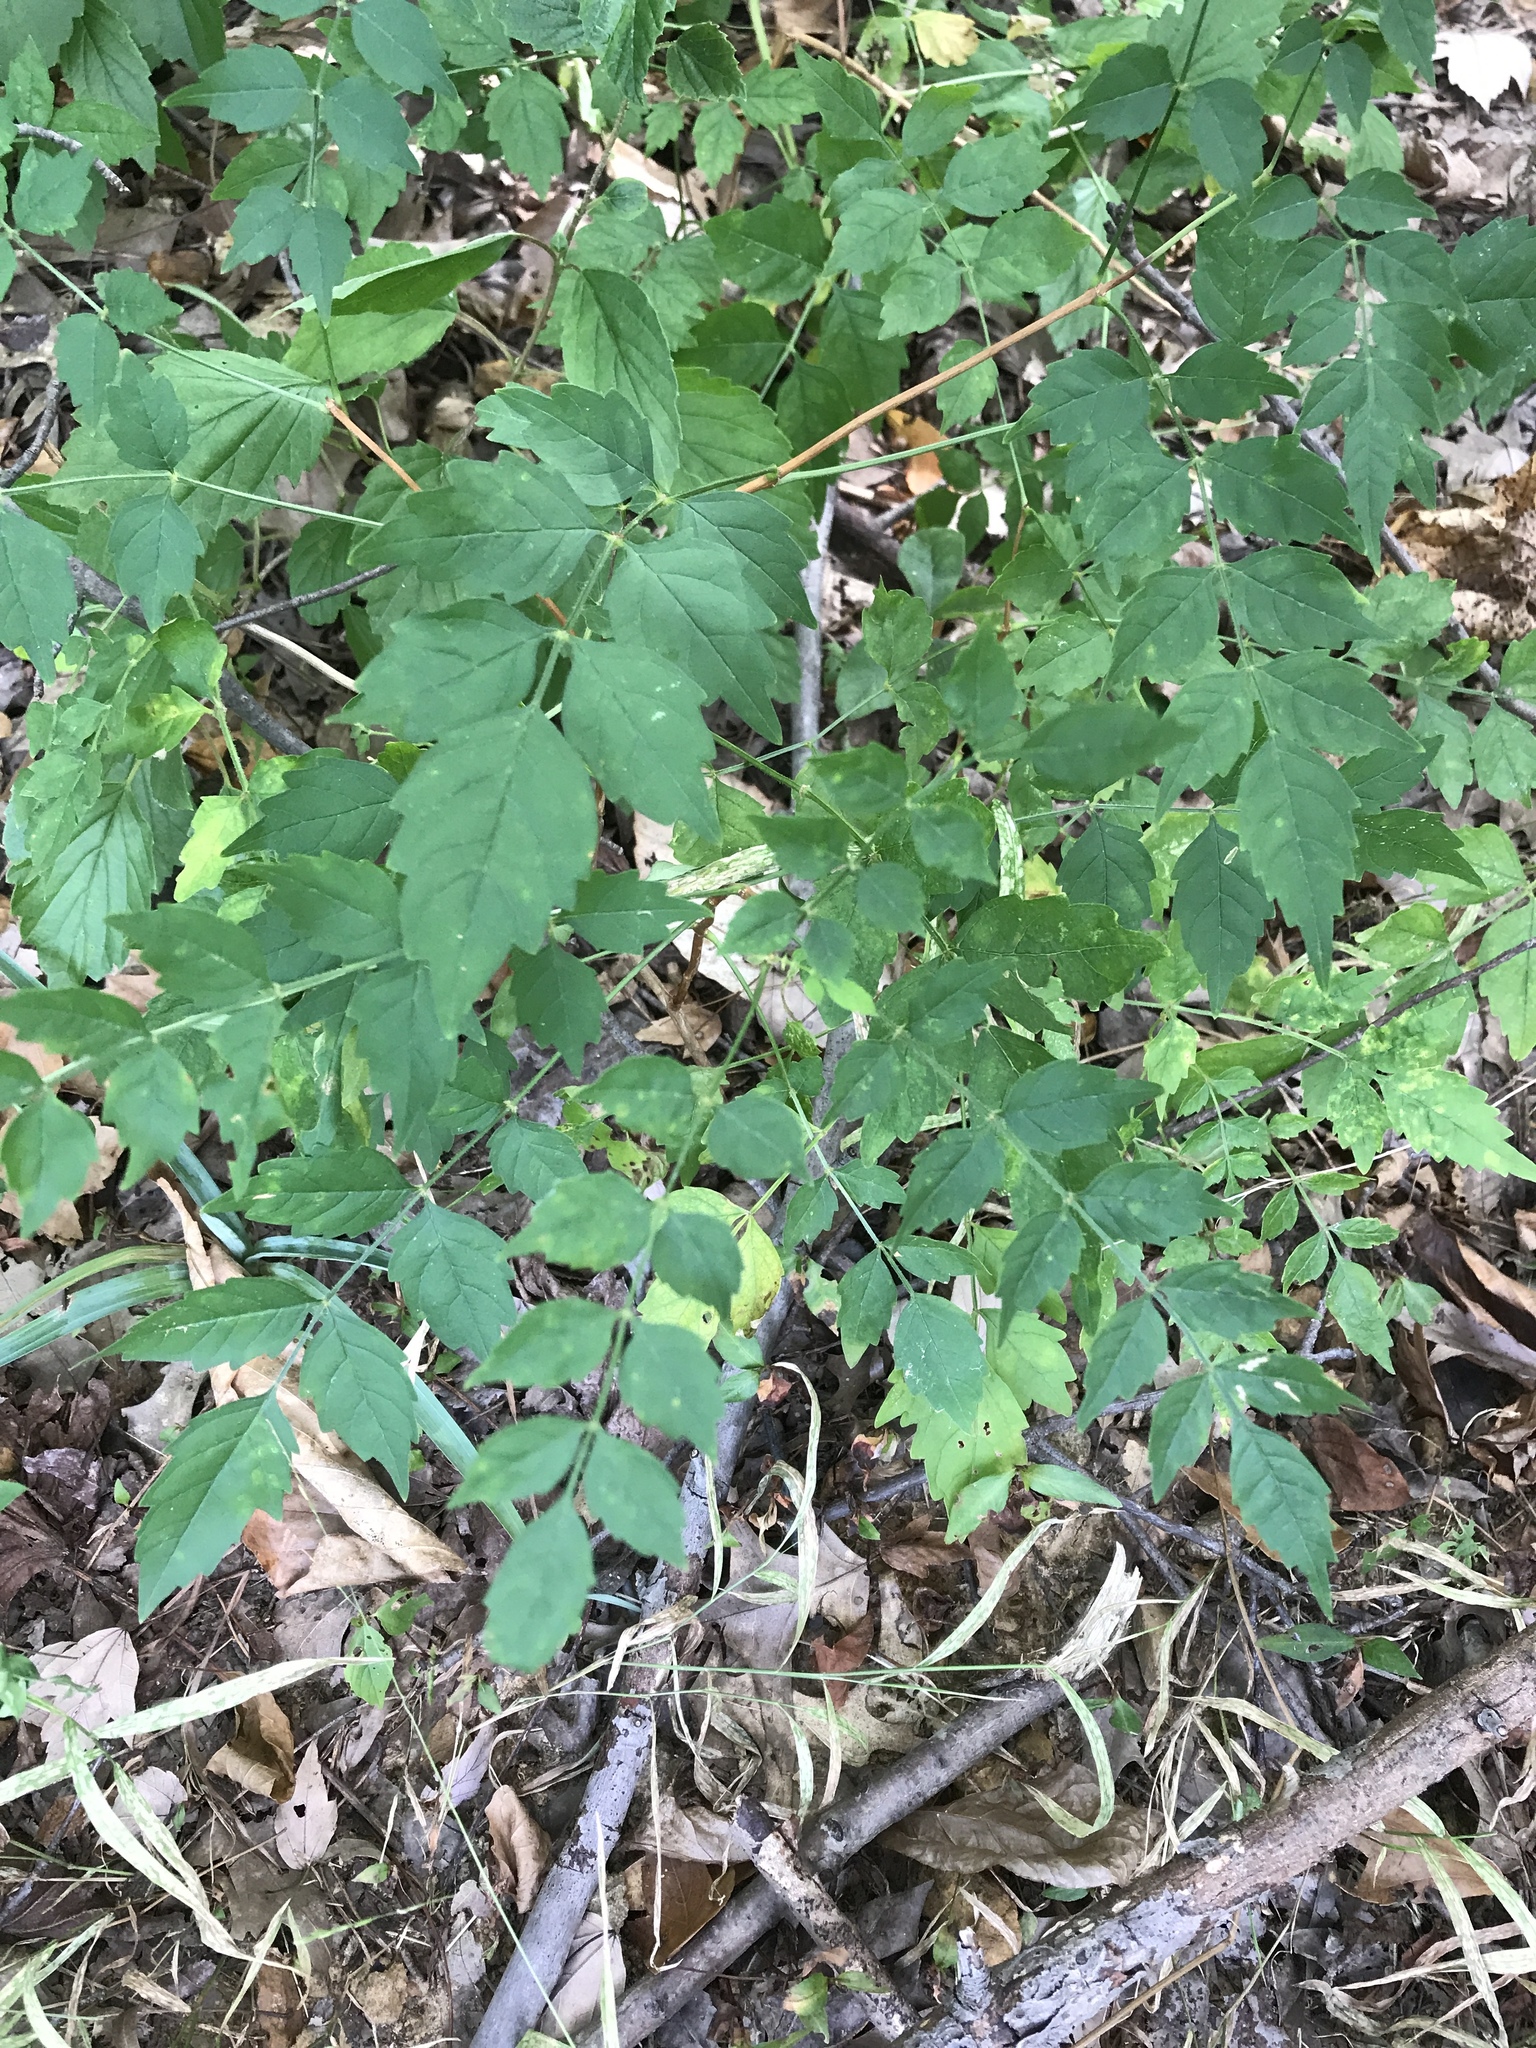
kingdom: Plantae
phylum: Tracheophyta
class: Magnoliopsida
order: Lamiales
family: Bignoniaceae
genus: Campsis
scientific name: Campsis radicans
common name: Trumpet-creeper
